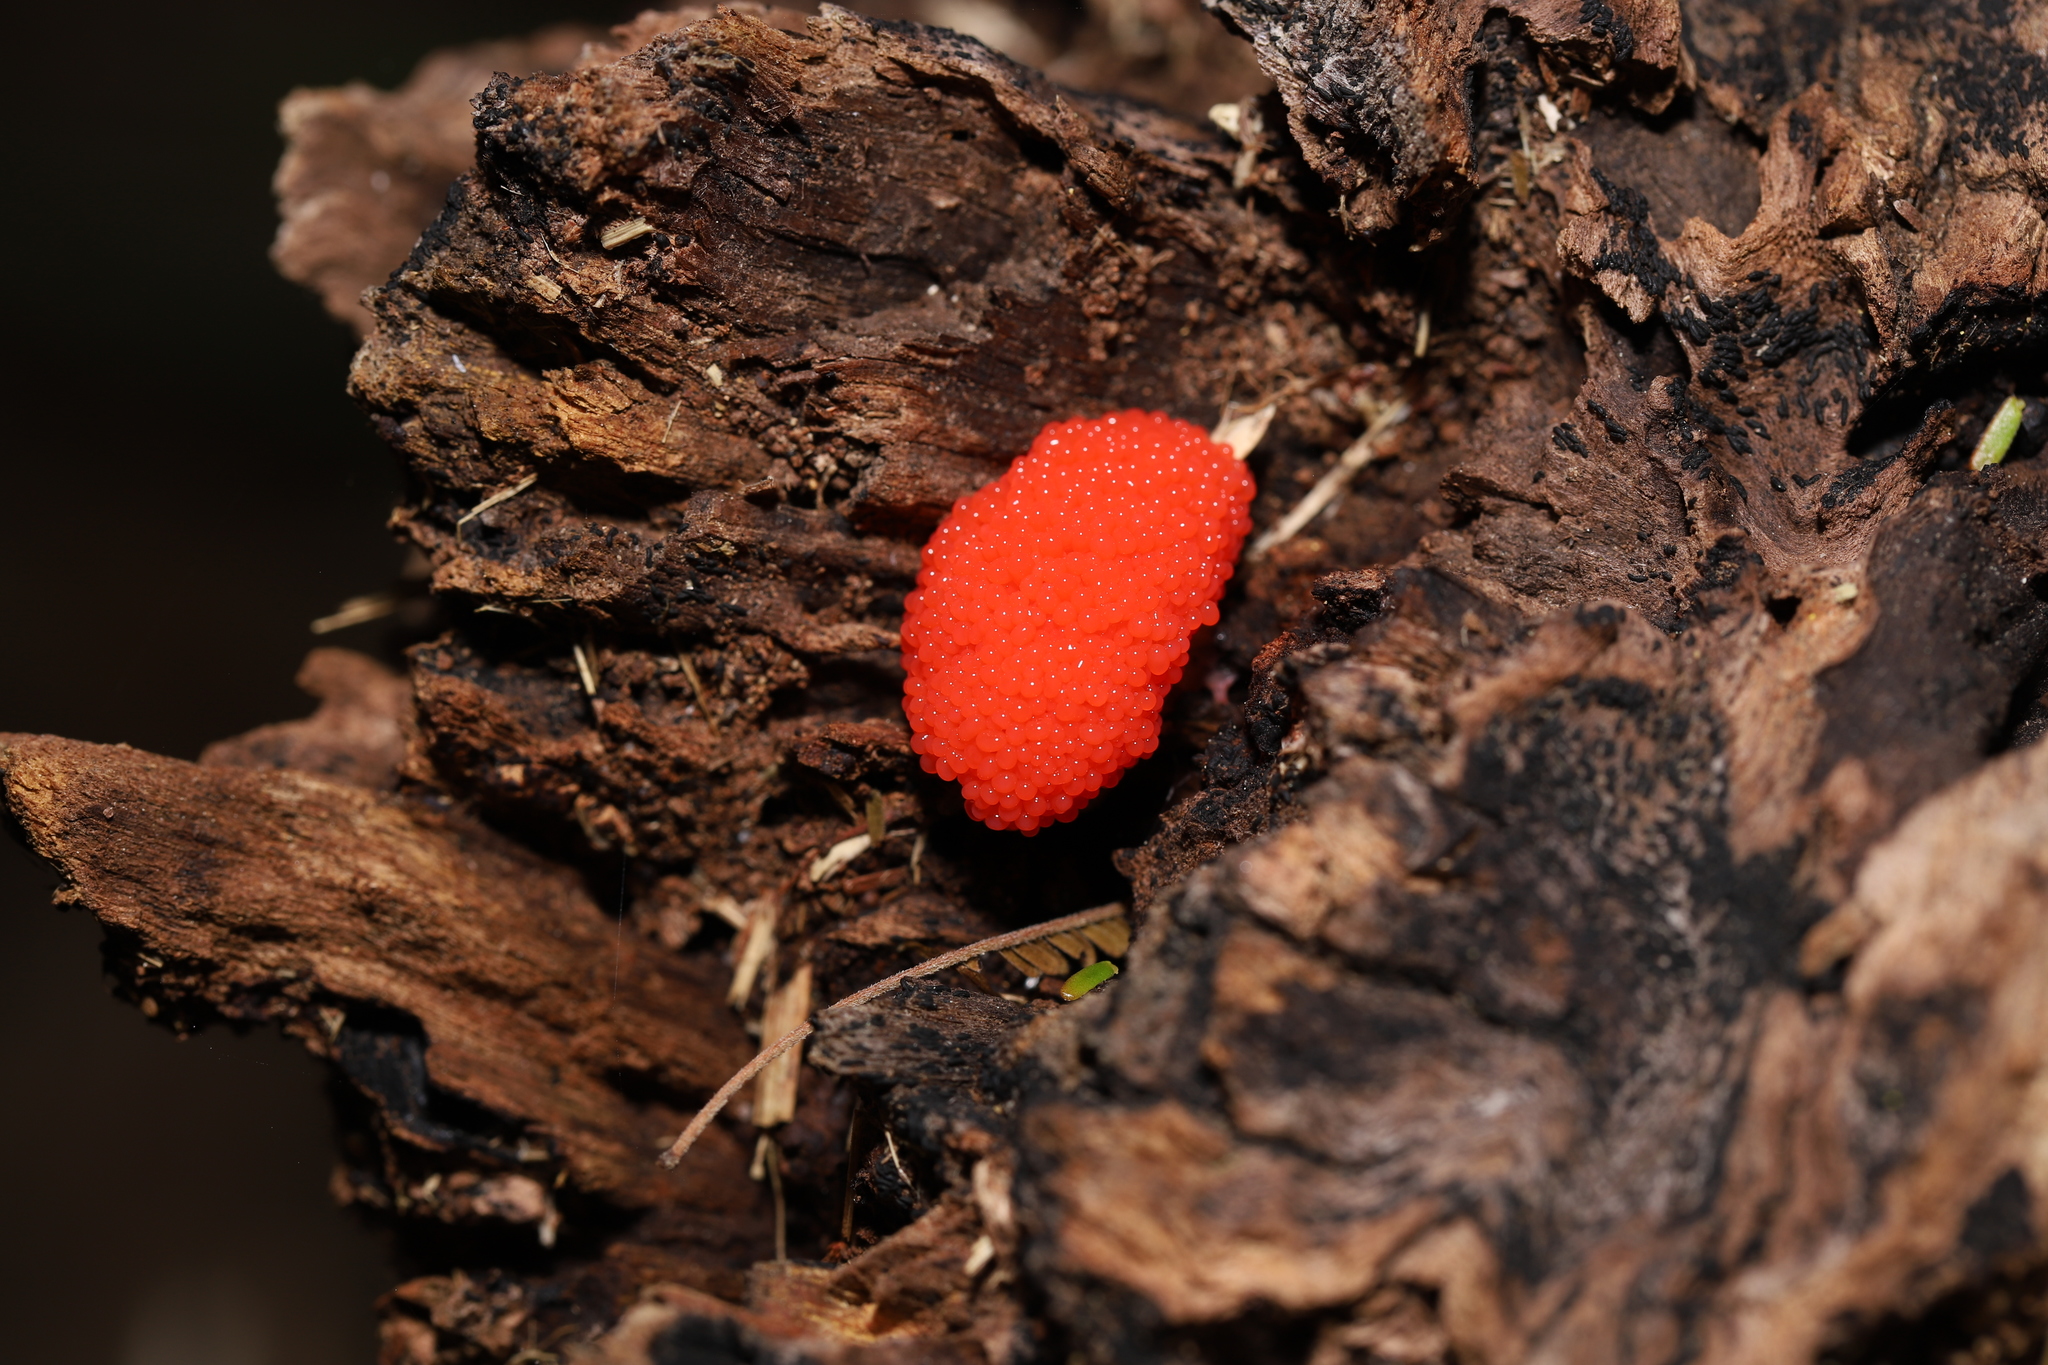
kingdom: Protozoa
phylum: Mycetozoa
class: Myxomycetes
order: Cribrariales
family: Tubiferaceae
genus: Tubifera
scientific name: Tubifera ferruginosa
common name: Red raspberry slime mold
